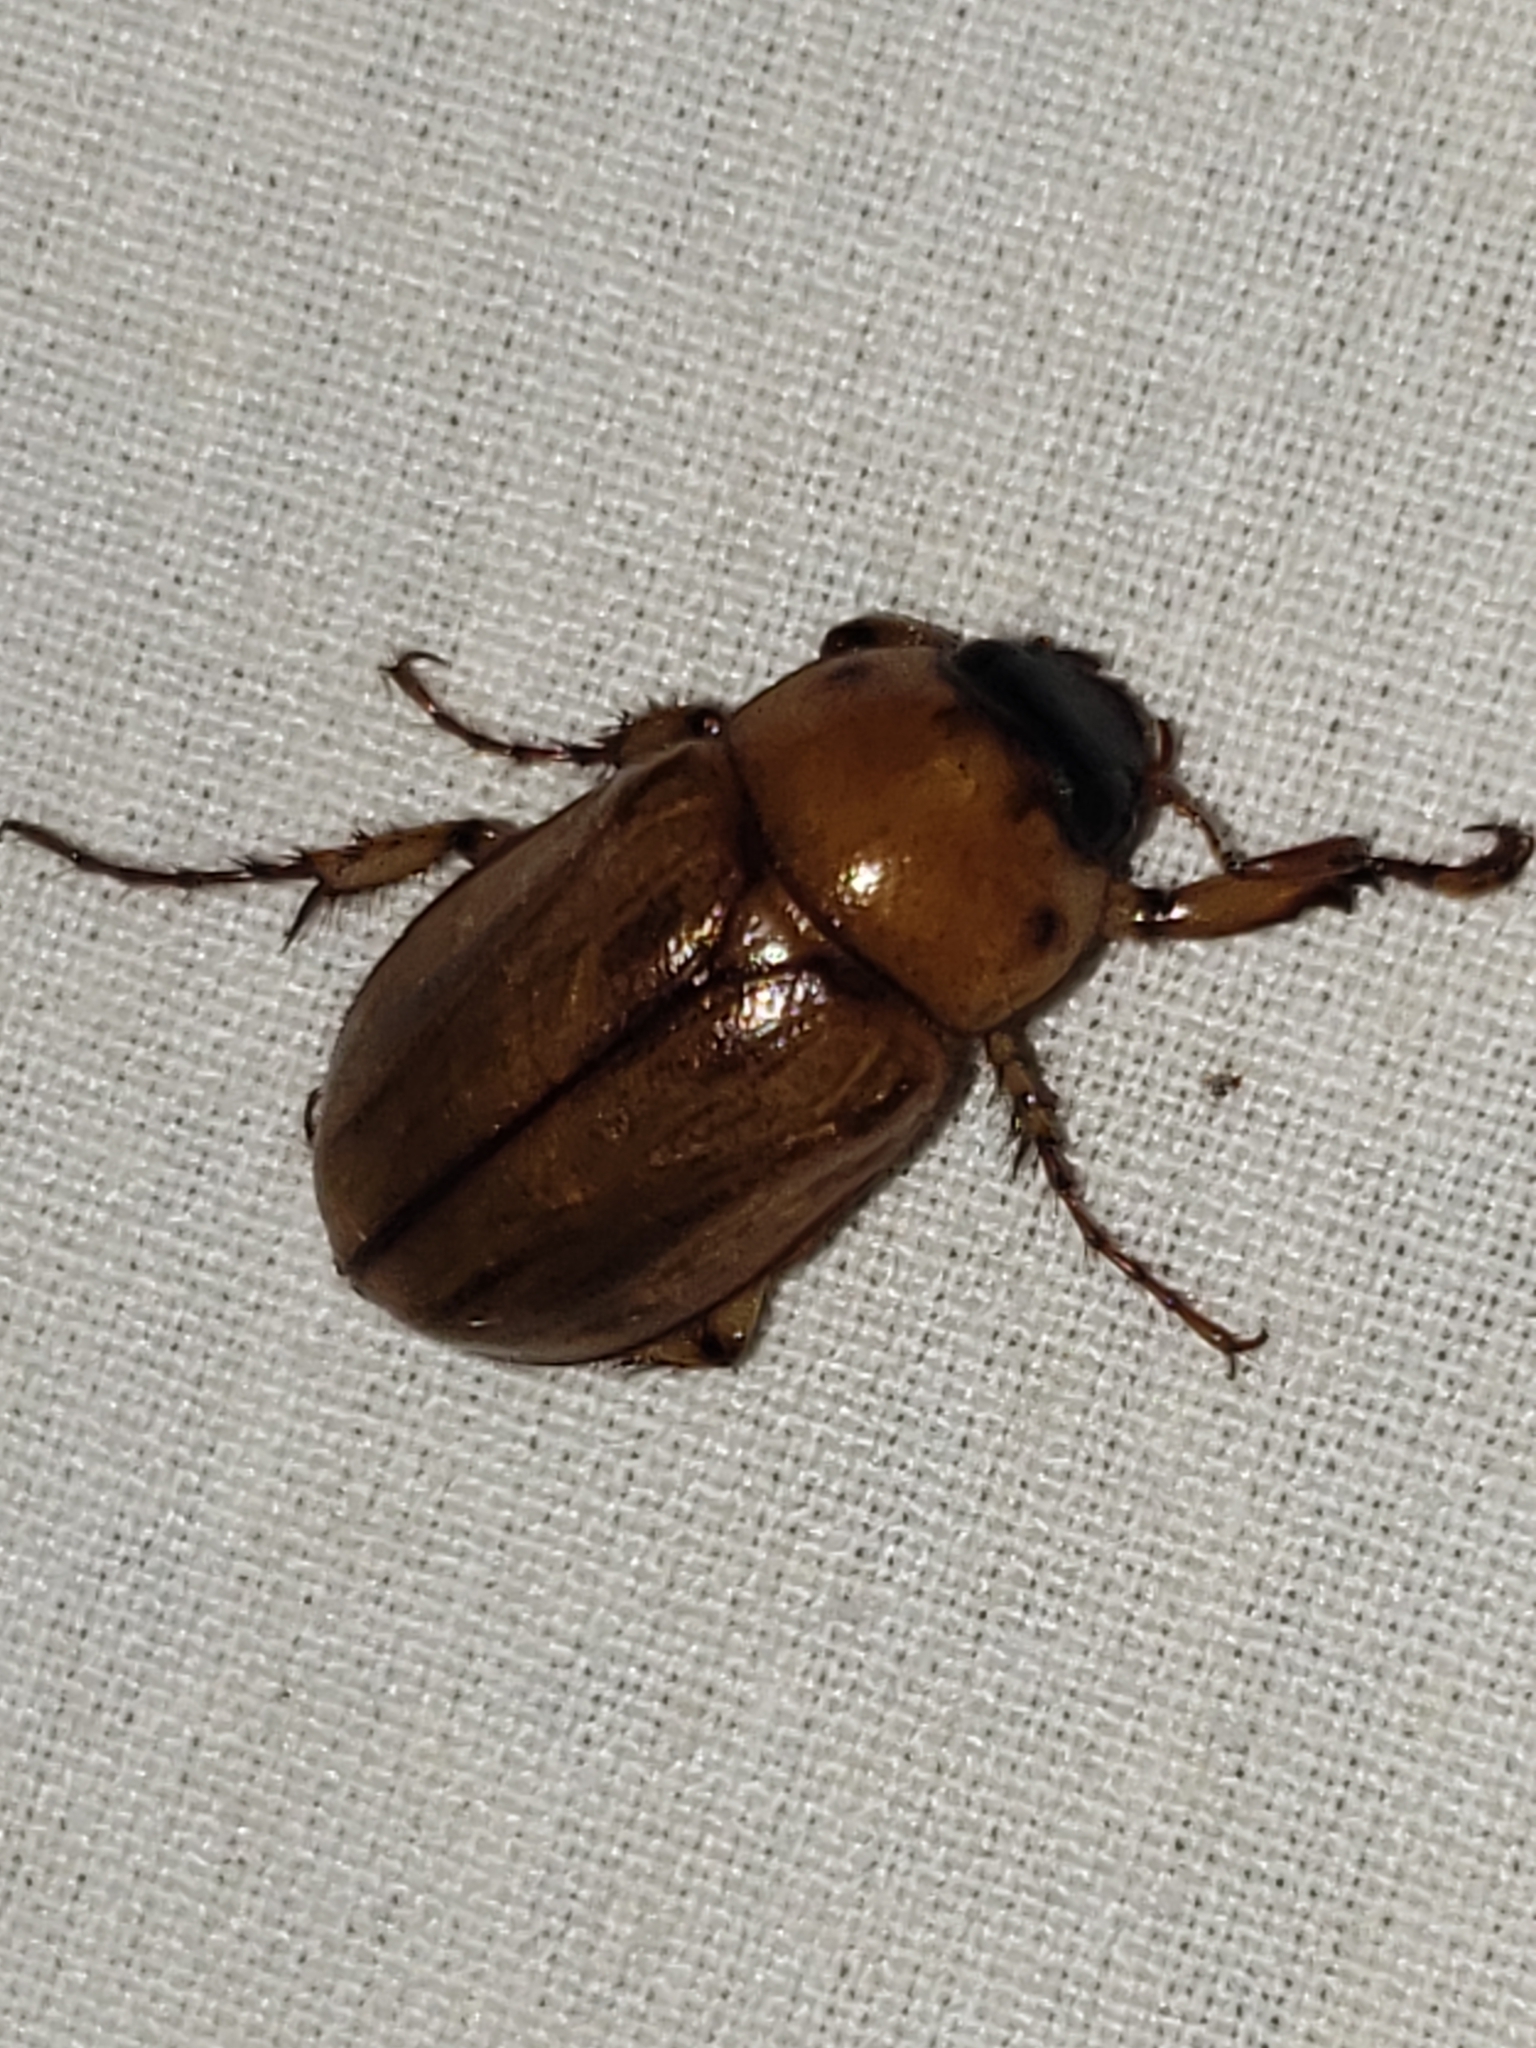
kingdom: Animalia
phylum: Arthropoda
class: Insecta
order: Coleoptera
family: Scarabaeidae
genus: Cyclocephala
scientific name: Cyclocephala lurida
